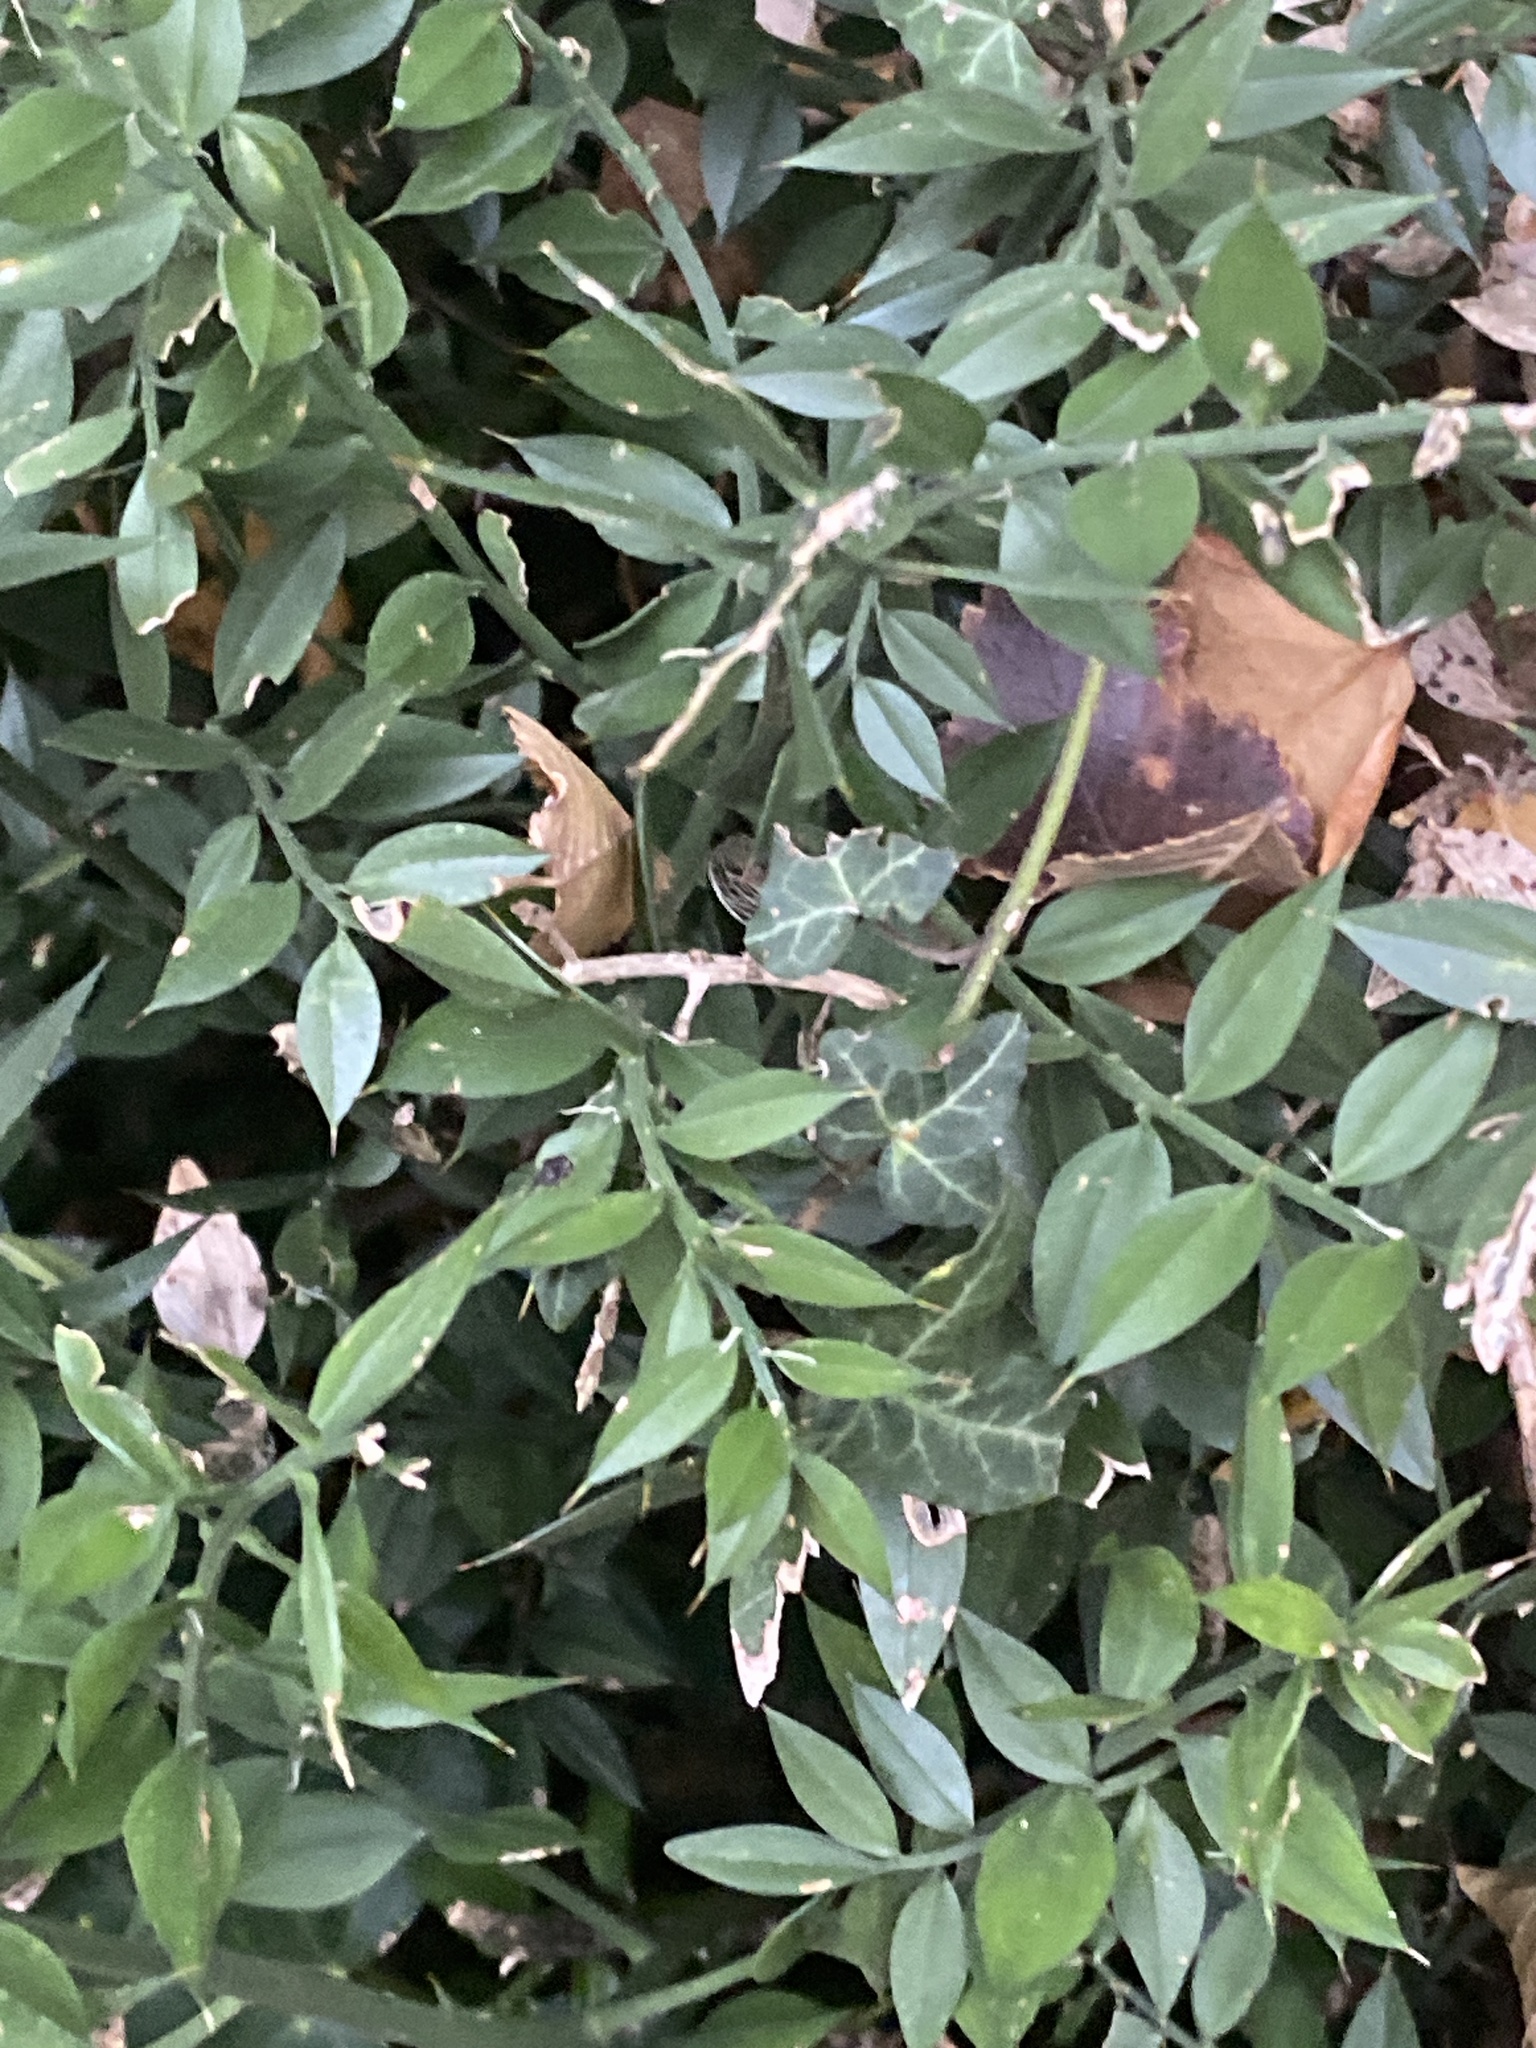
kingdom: Plantae
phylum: Tracheophyta
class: Liliopsida
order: Asparagales
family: Asparagaceae
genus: Ruscus
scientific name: Ruscus aculeatus
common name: Butcher's-broom
